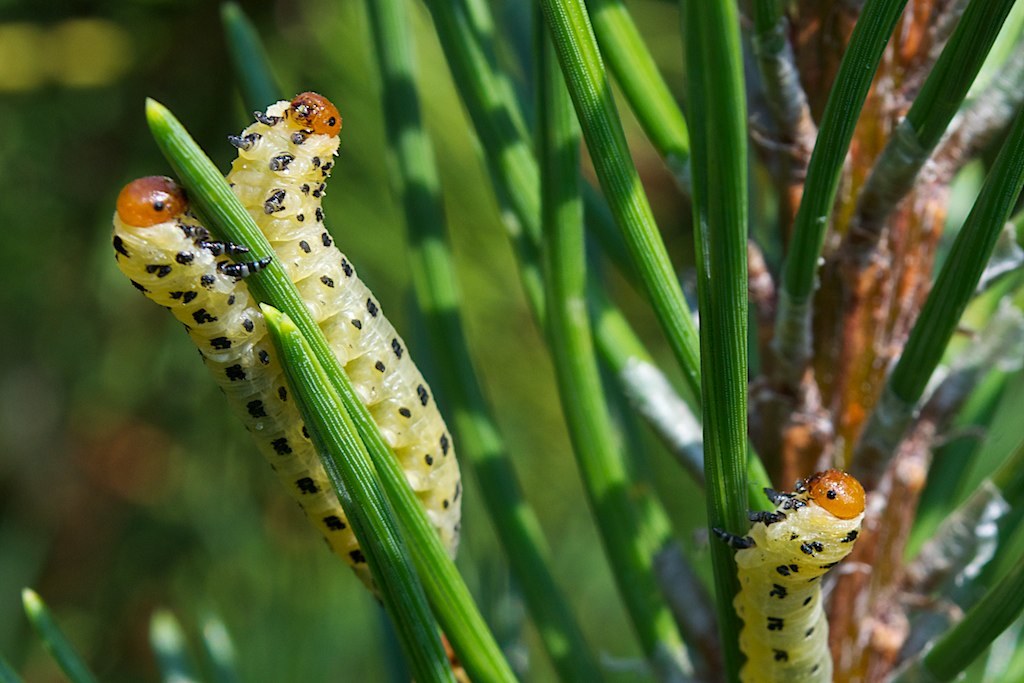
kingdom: Animalia
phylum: Arthropoda
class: Insecta
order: Hymenoptera
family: Diprionidae
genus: Neodiprion
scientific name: Neodiprion lecontei
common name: Redheaded pine sawfly
